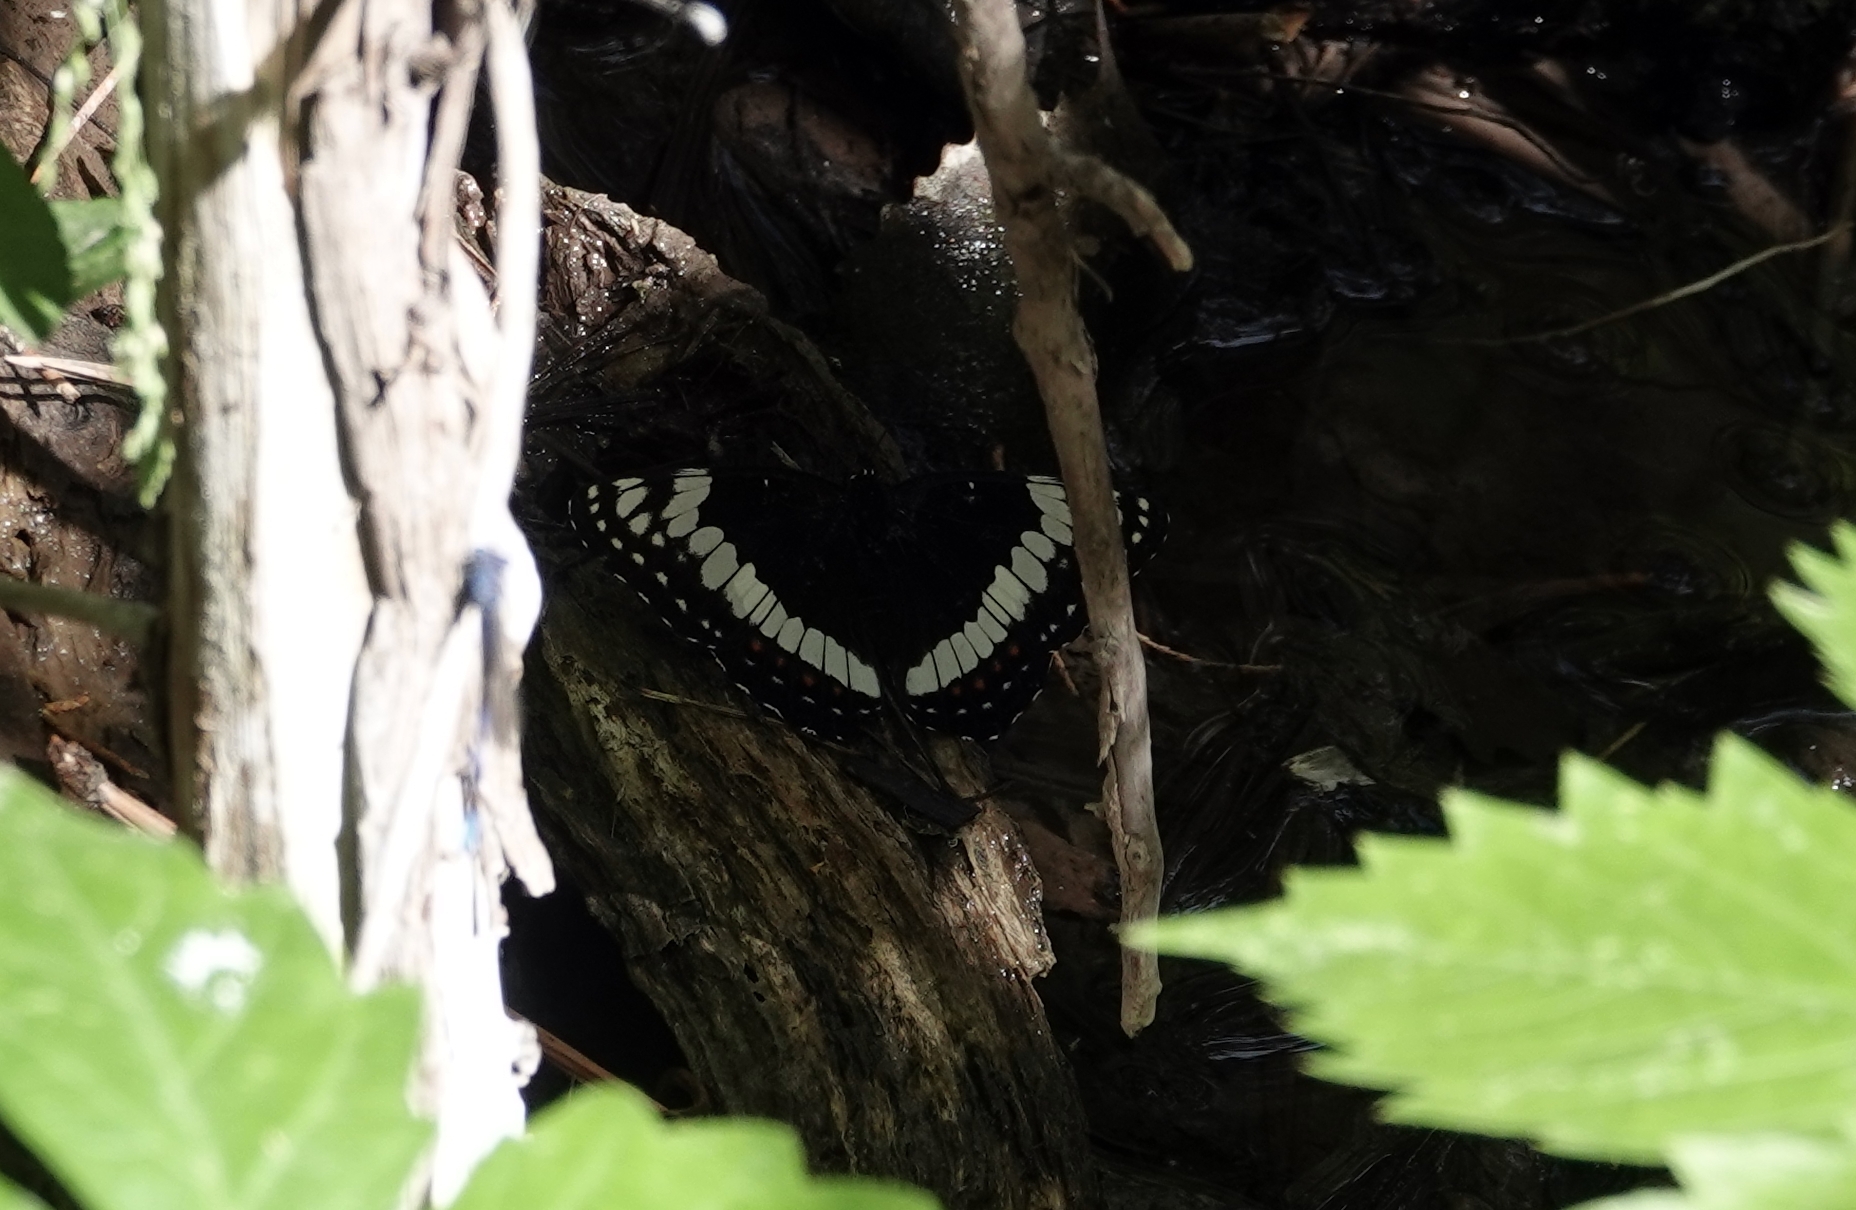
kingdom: Animalia
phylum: Arthropoda
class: Insecta
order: Lepidoptera
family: Nymphalidae
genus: Limenitis
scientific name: Limenitis weidemeyerii
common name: Weidemeyer's admiral
